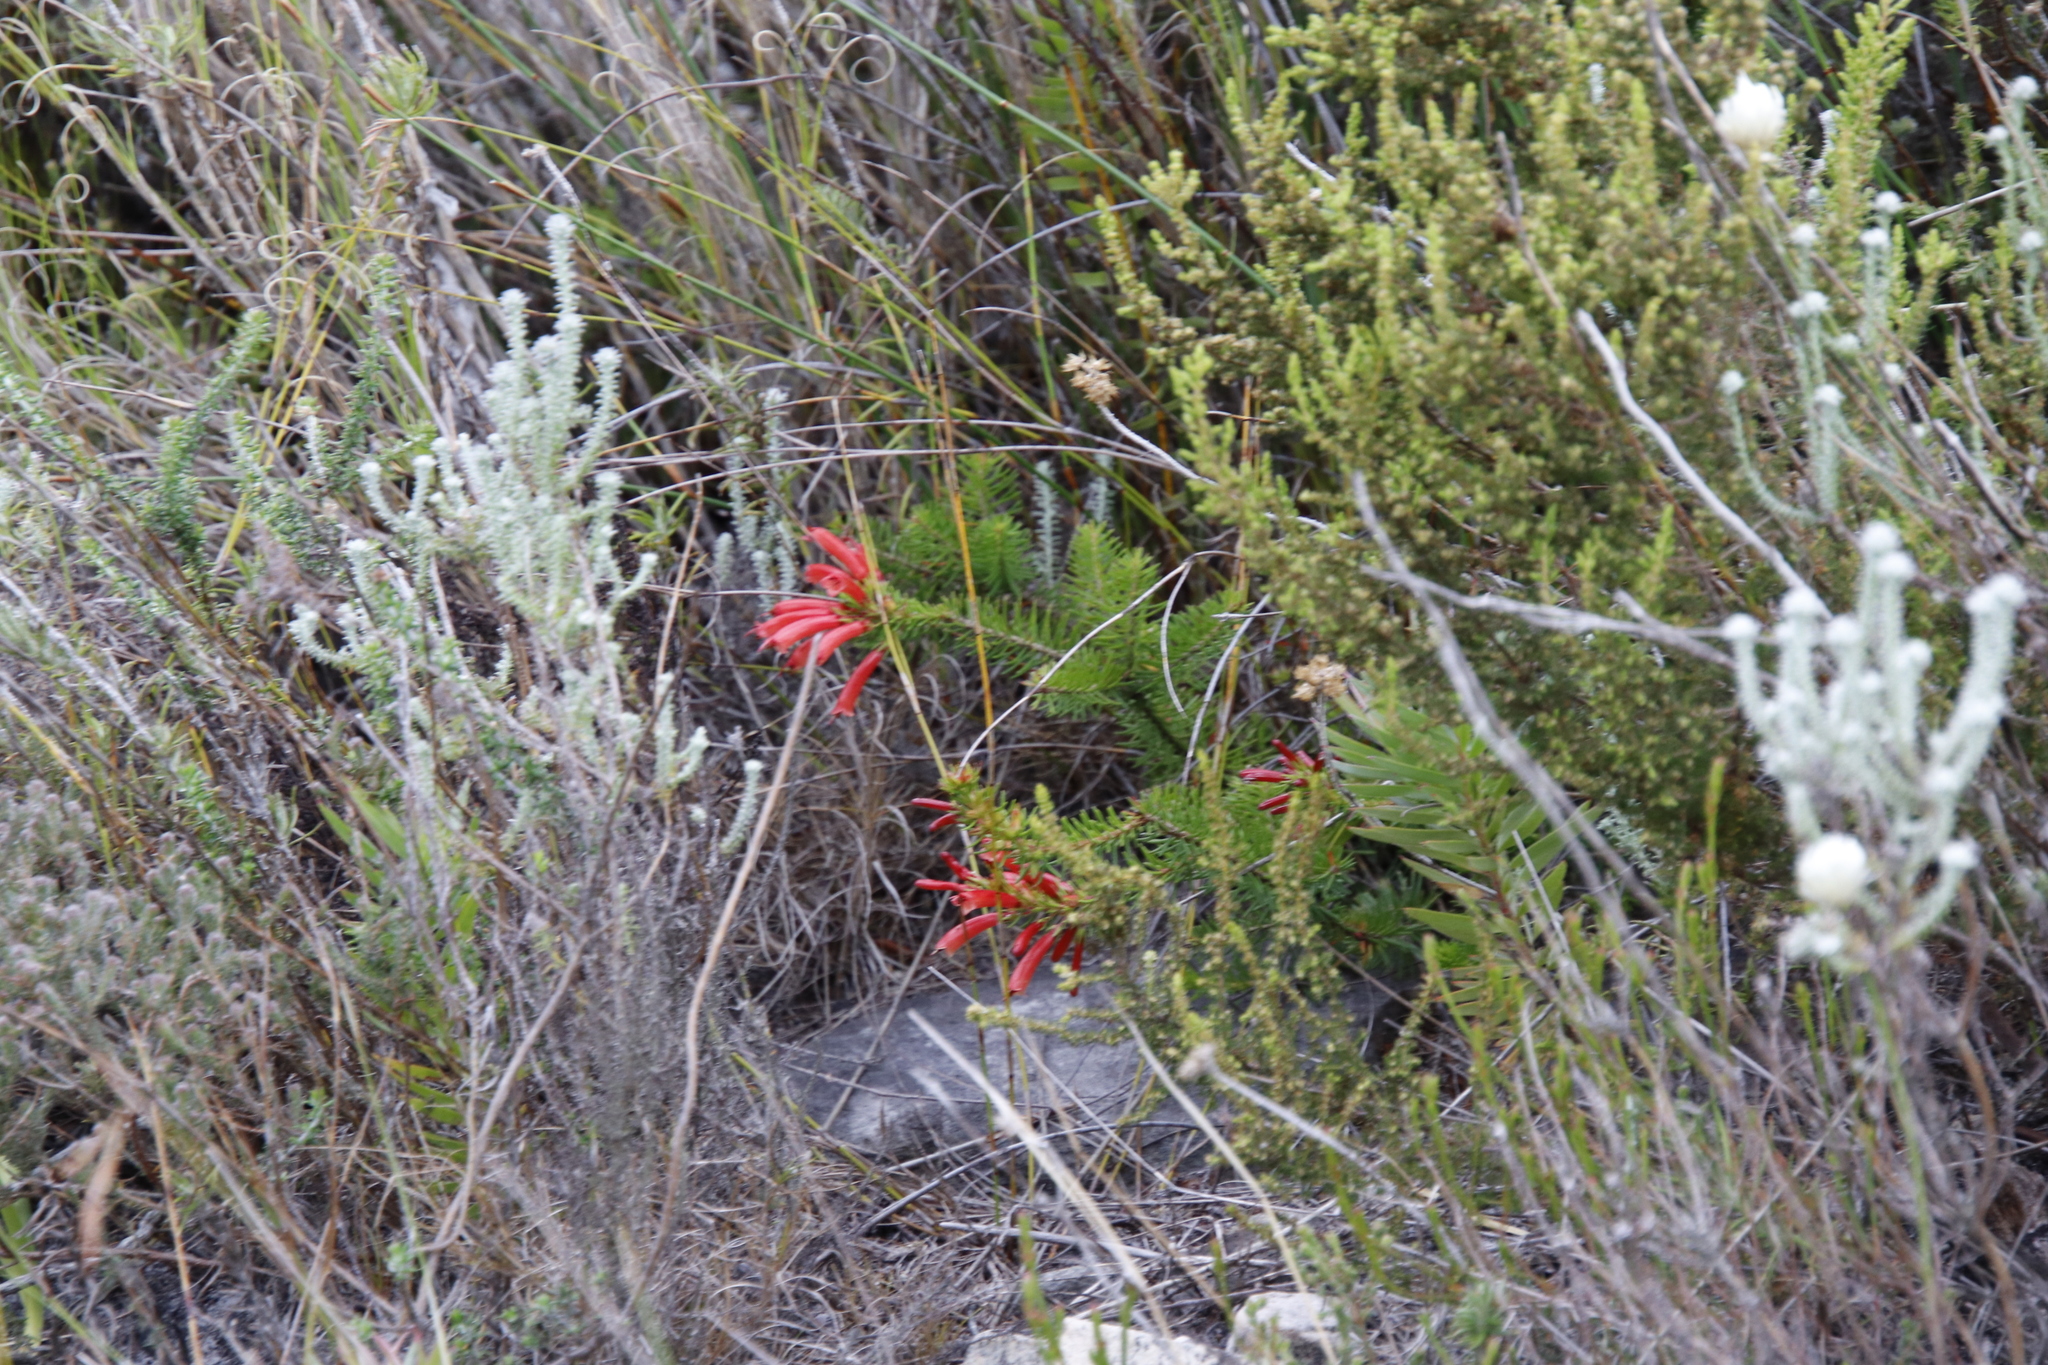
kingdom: Plantae
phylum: Tracheophyta
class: Magnoliopsida
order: Ericales
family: Ericaceae
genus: Erica
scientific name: Erica nevillei
